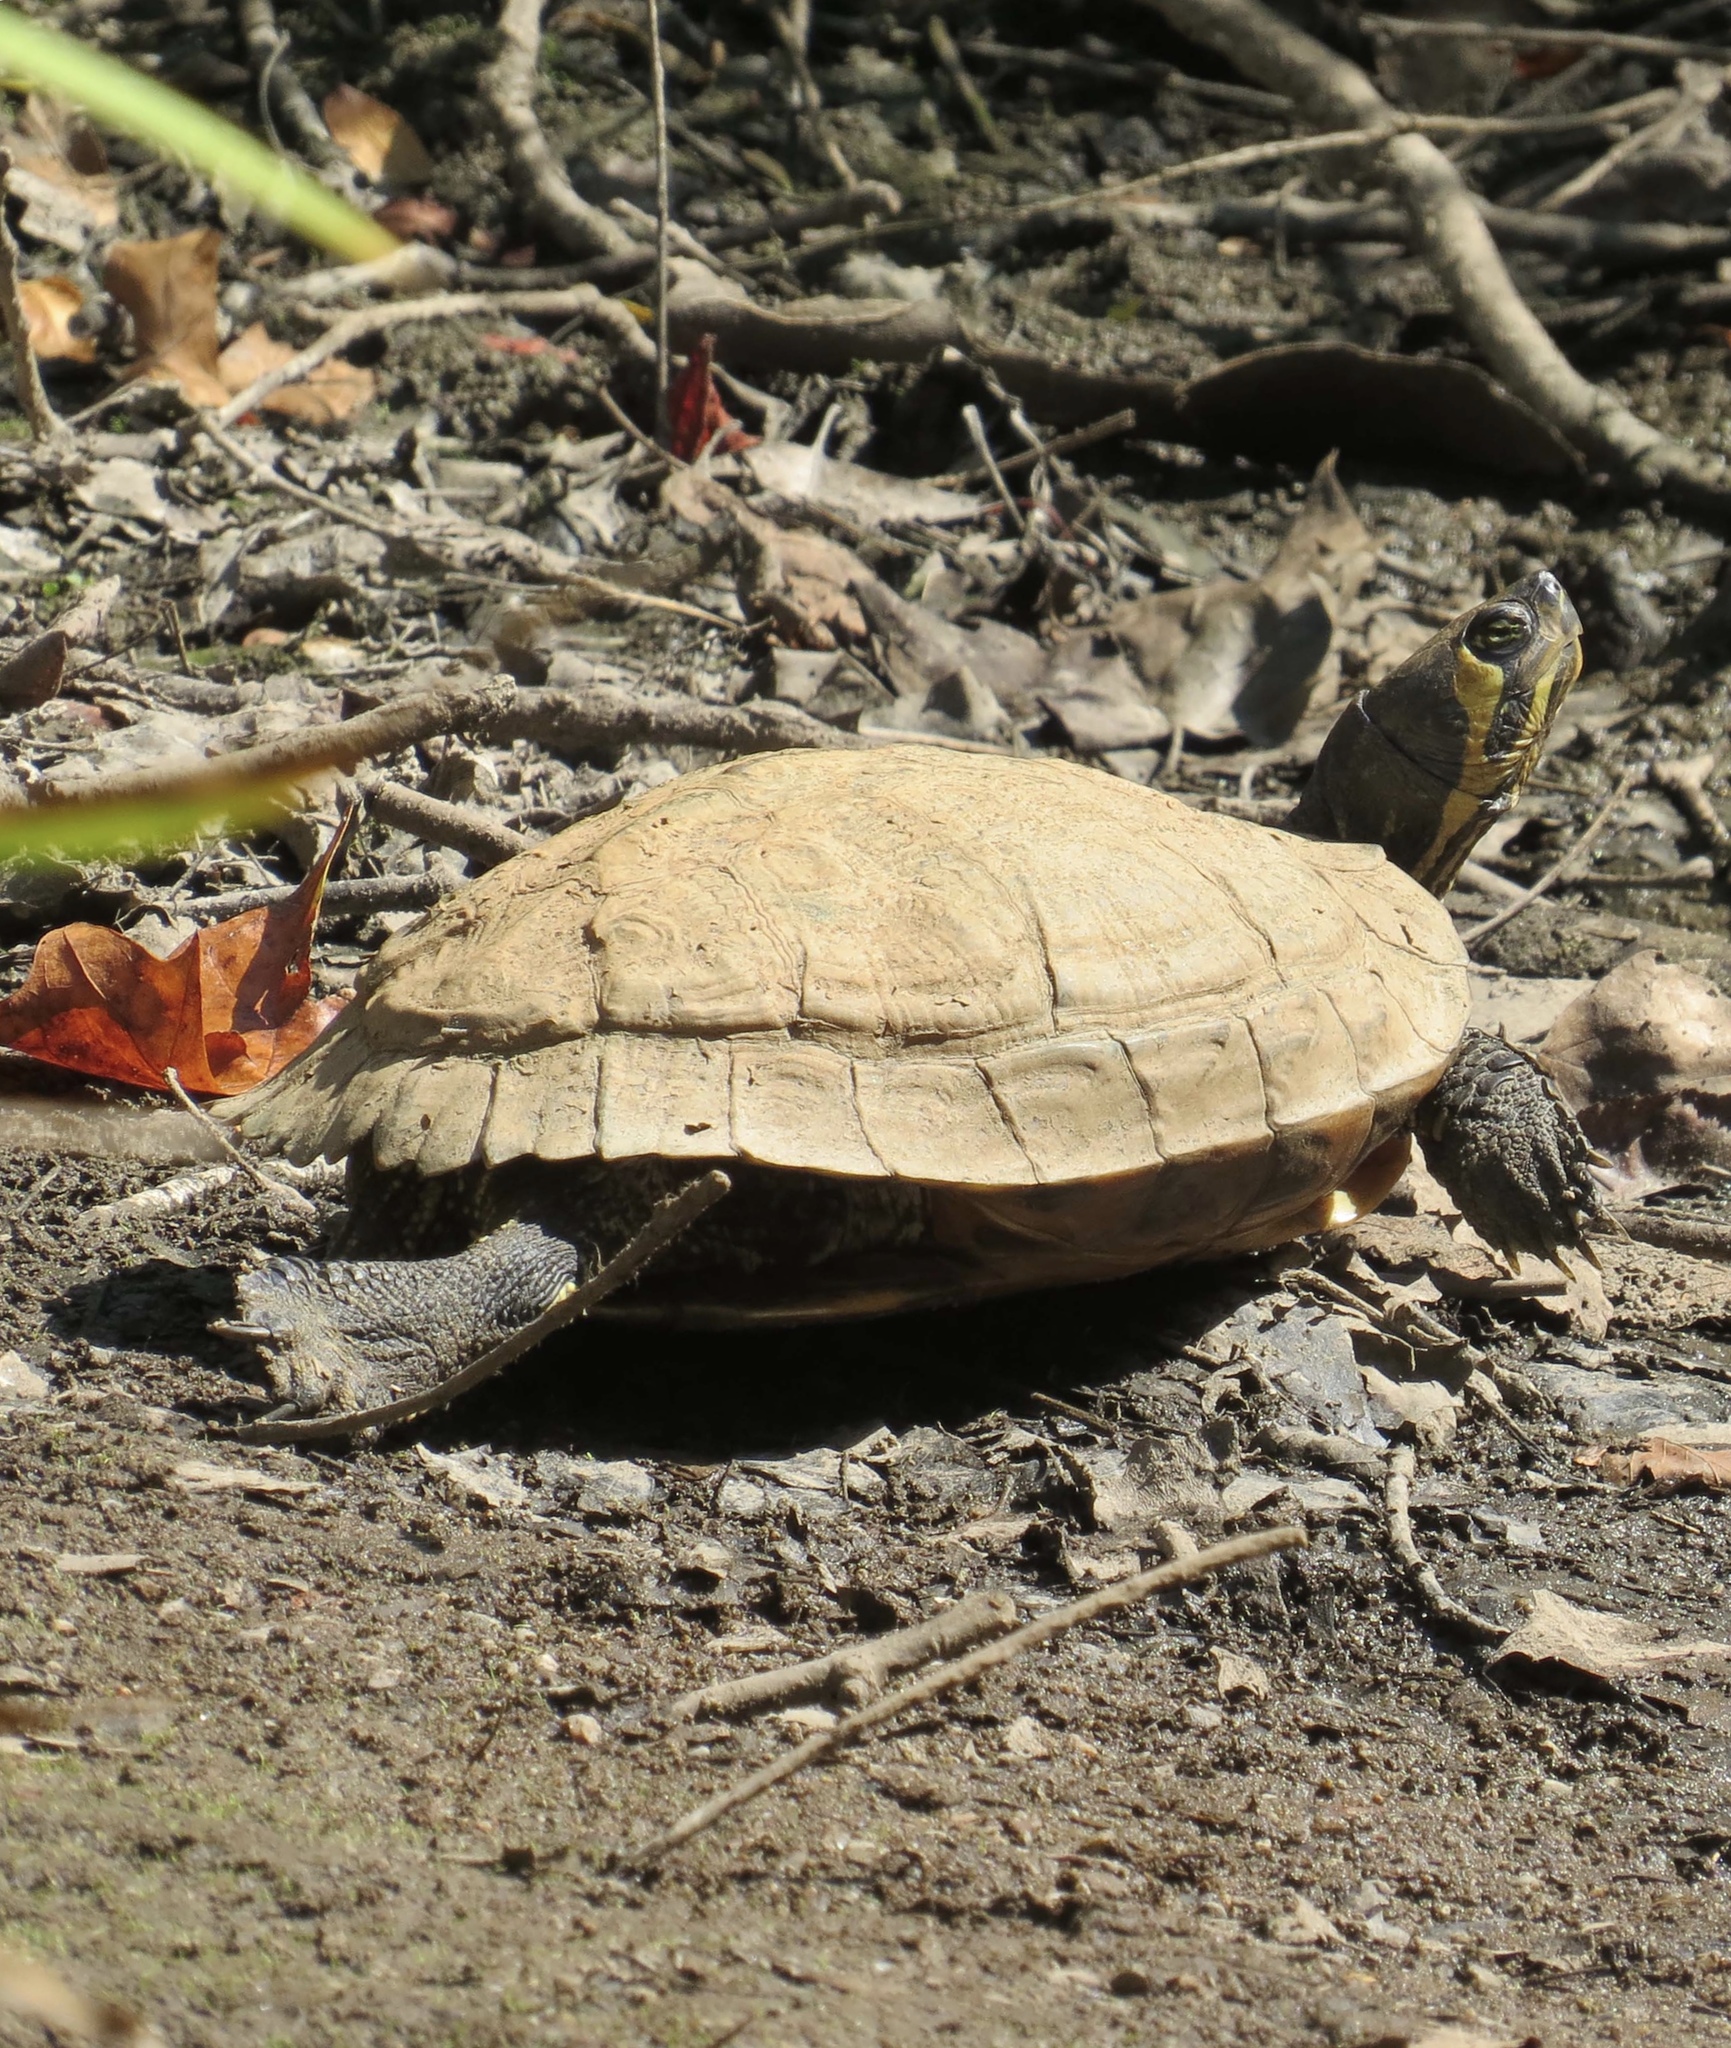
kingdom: Animalia
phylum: Chordata
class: Testudines
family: Emydidae
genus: Trachemys
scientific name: Trachemys scripta
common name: Slider
